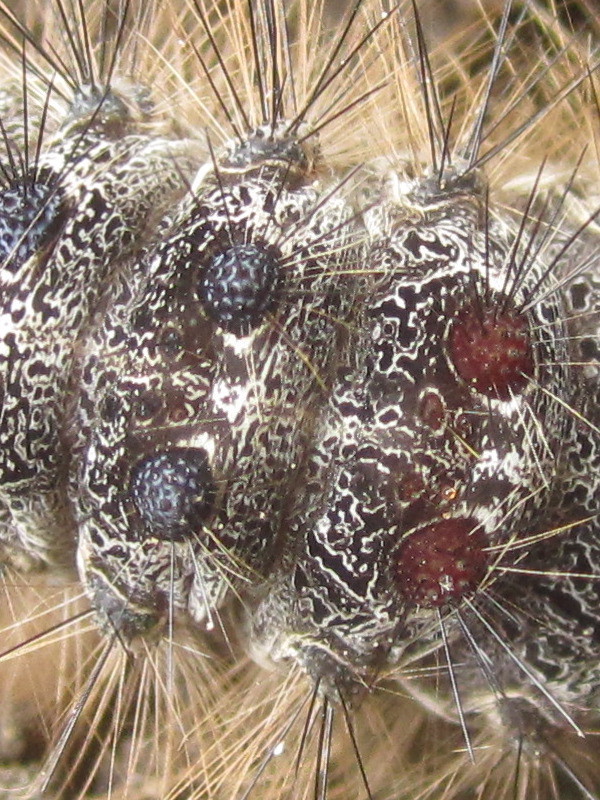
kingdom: Animalia
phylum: Arthropoda
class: Insecta
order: Lepidoptera
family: Erebidae
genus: Lymantria
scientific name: Lymantria dispar
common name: Gypsy moth
